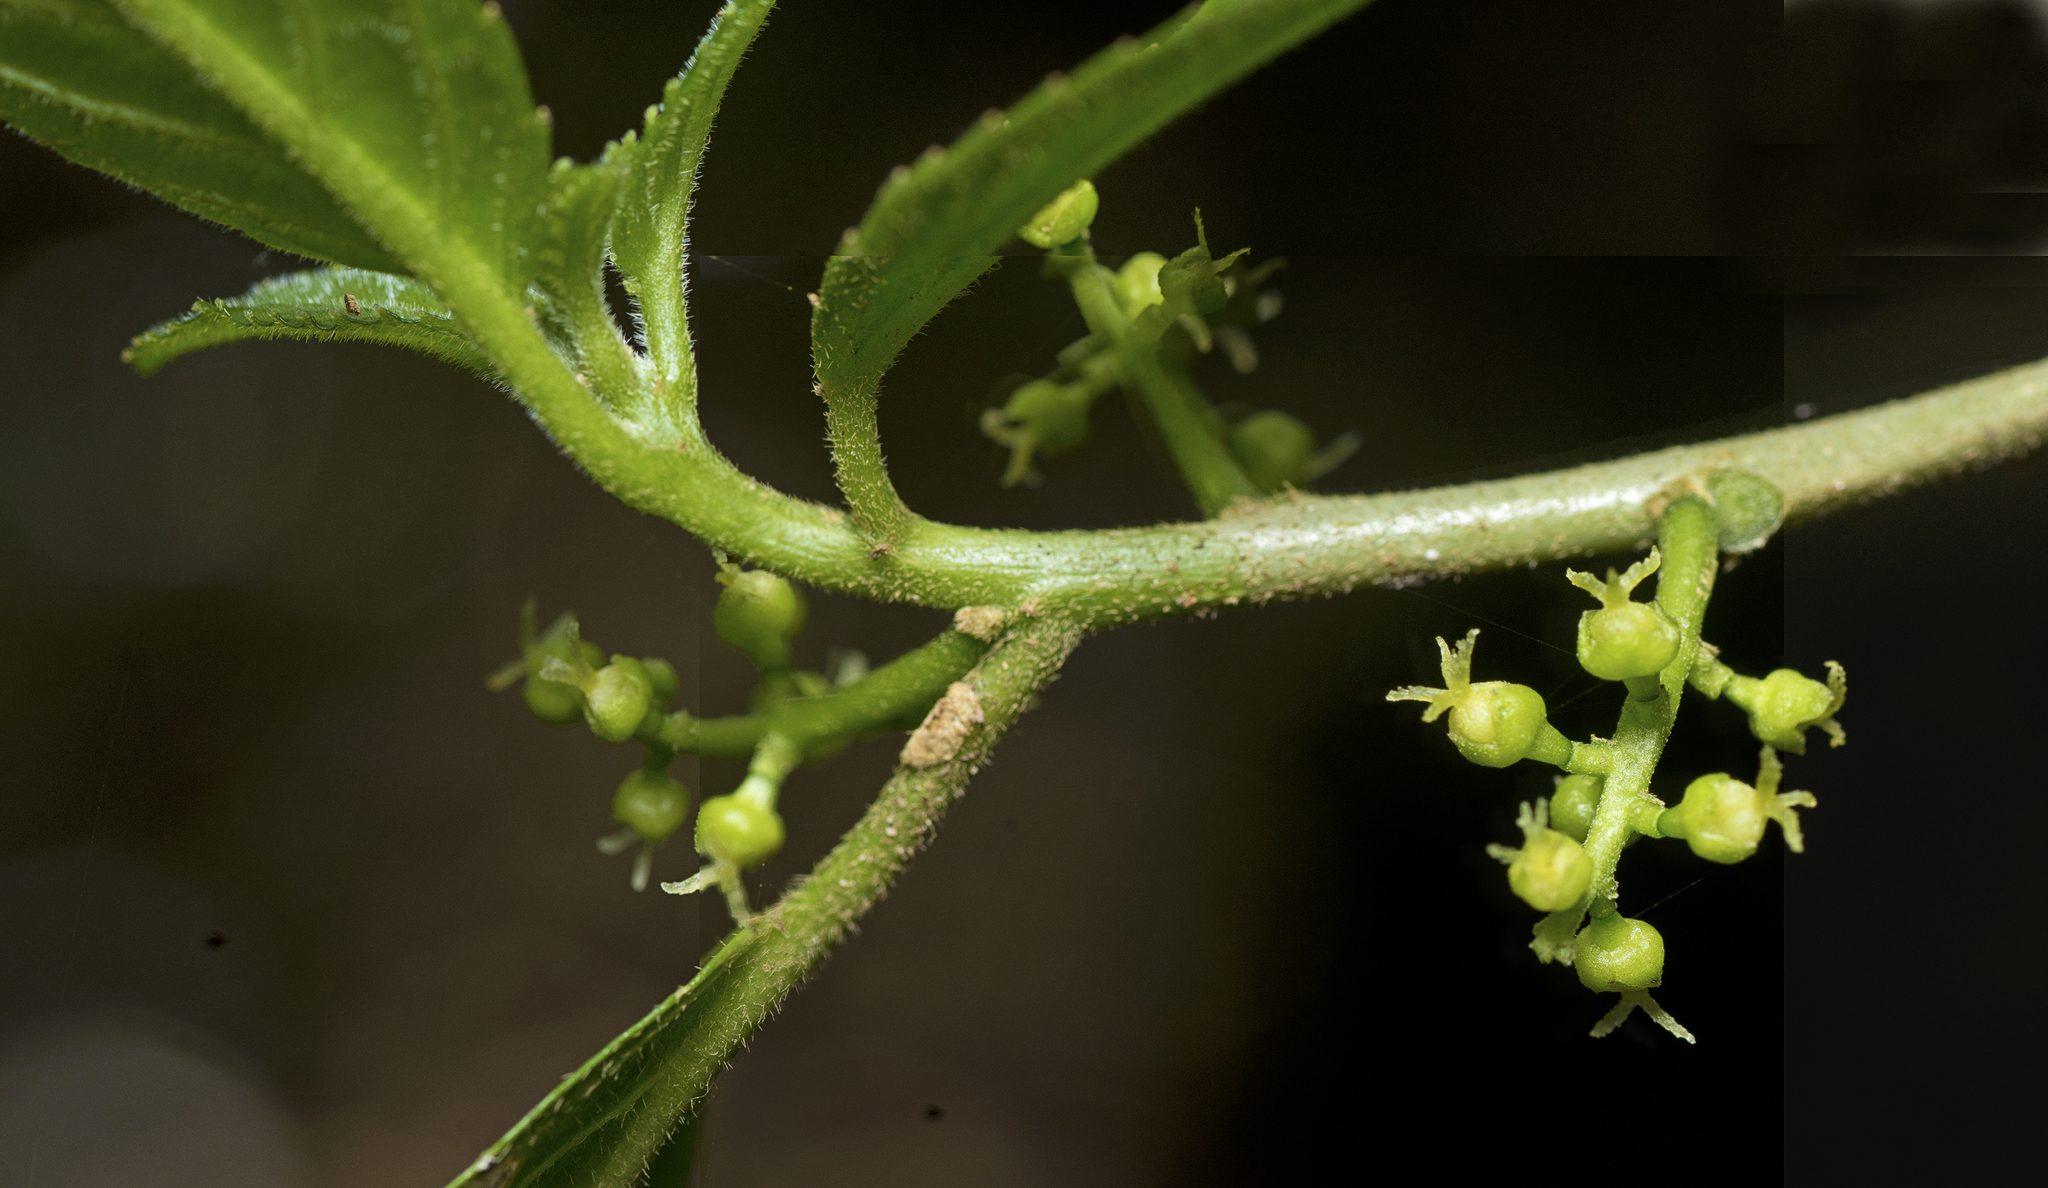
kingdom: Plantae
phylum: Tracheophyta
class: Magnoliopsida
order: Malpighiales
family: Euphorbiaceae
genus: Claoxylon
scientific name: Claoxylon australe
